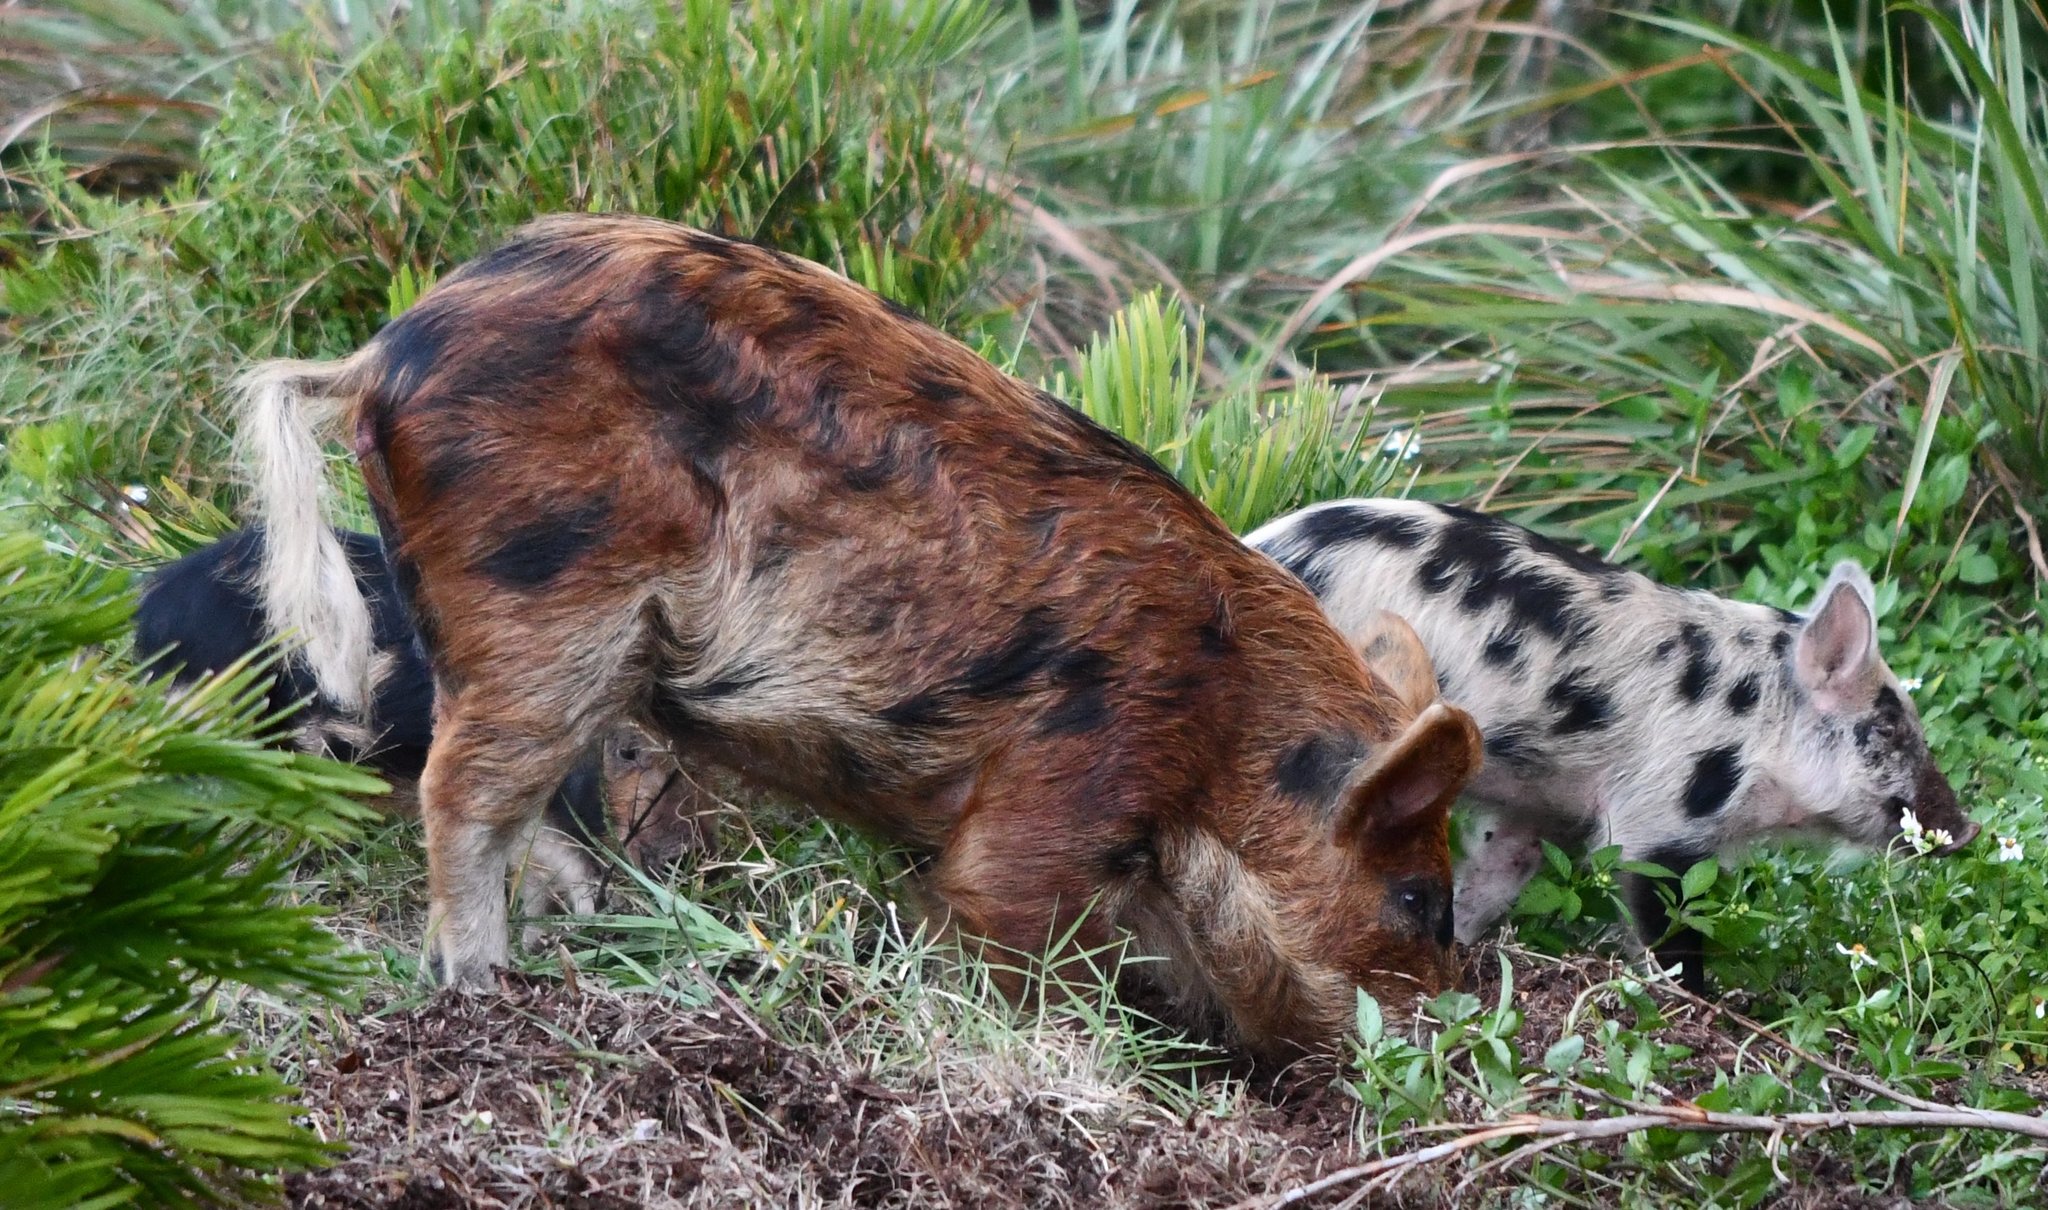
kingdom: Animalia
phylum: Chordata
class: Mammalia
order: Artiodactyla
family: Suidae
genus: Sus
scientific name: Sus scrofa
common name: Wild boar
